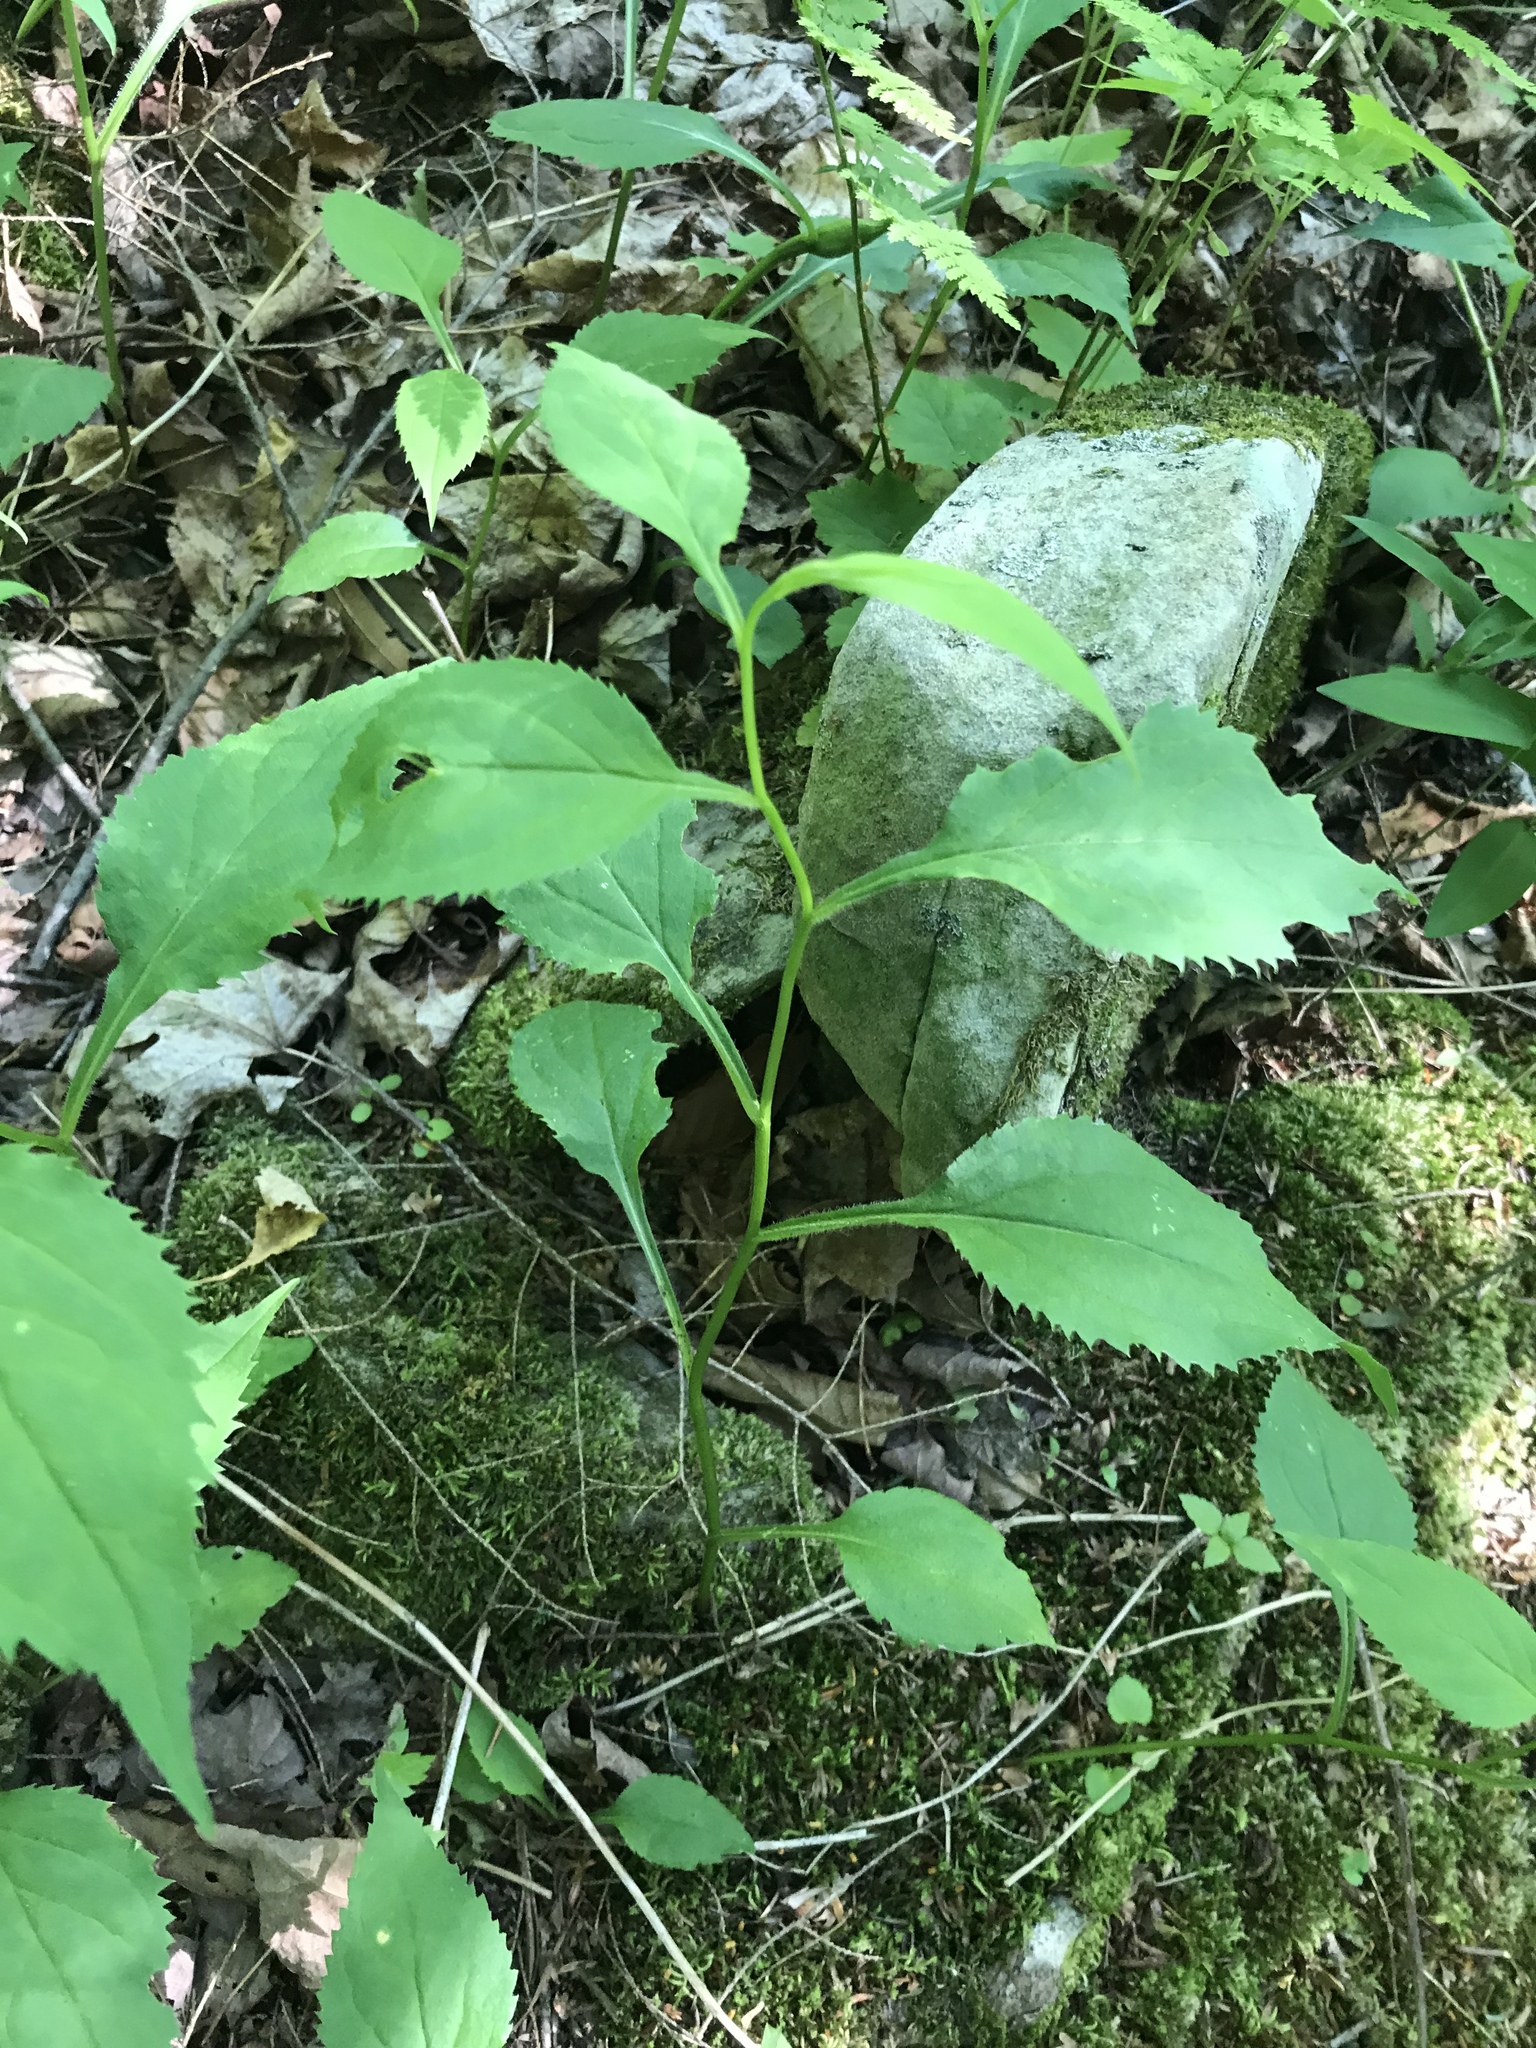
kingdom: Plantae
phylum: Tracheophyta
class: Magnoliopsida
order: Asterales
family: Asteraceae
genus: Solidago
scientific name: Solidago flexicaulis
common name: Zig-zag goldenrod
